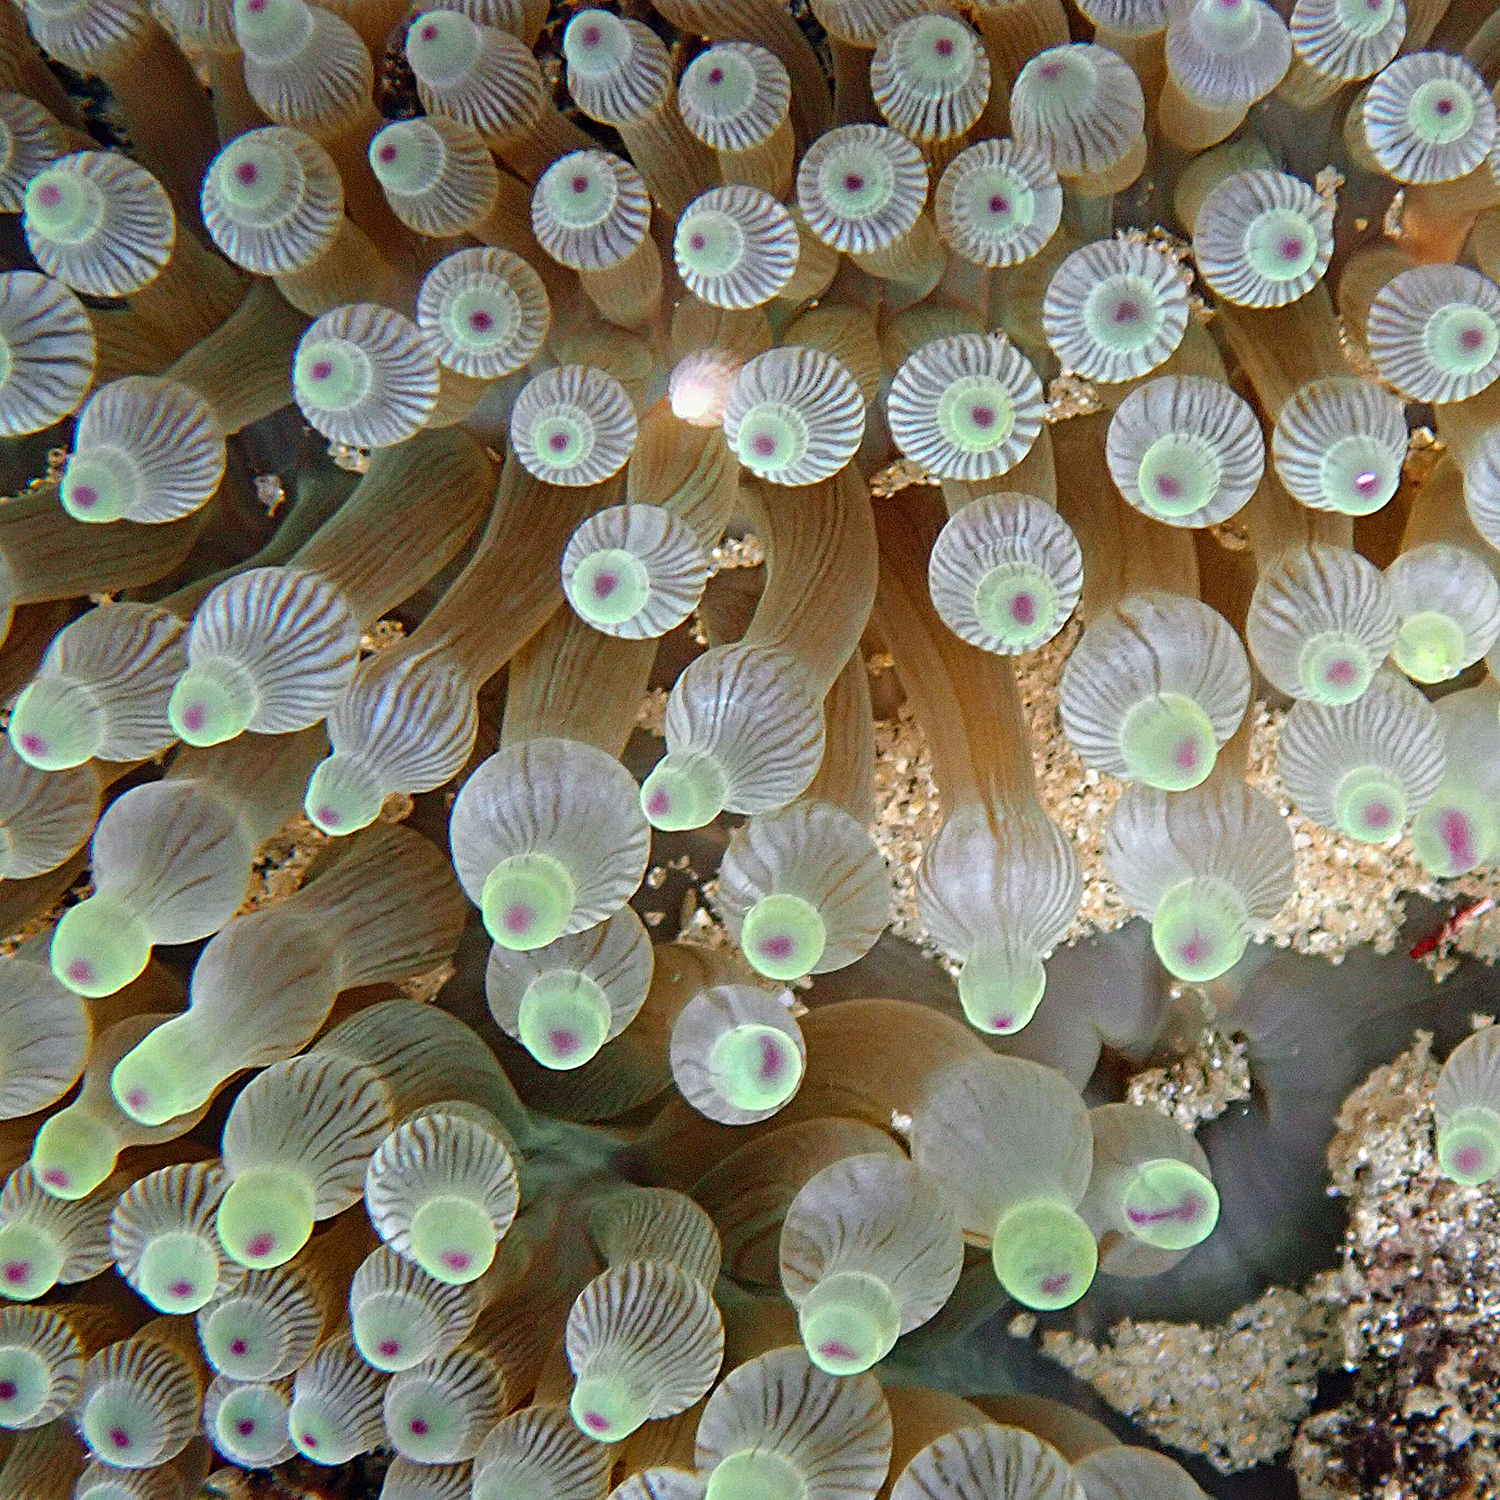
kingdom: Animalia
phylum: Cnidaria
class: Anthozoa
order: Actiniaria
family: Actiniidae
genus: Entacmaea
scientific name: Entacmaea quadricolor
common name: Bulb tentacle sea anemone
